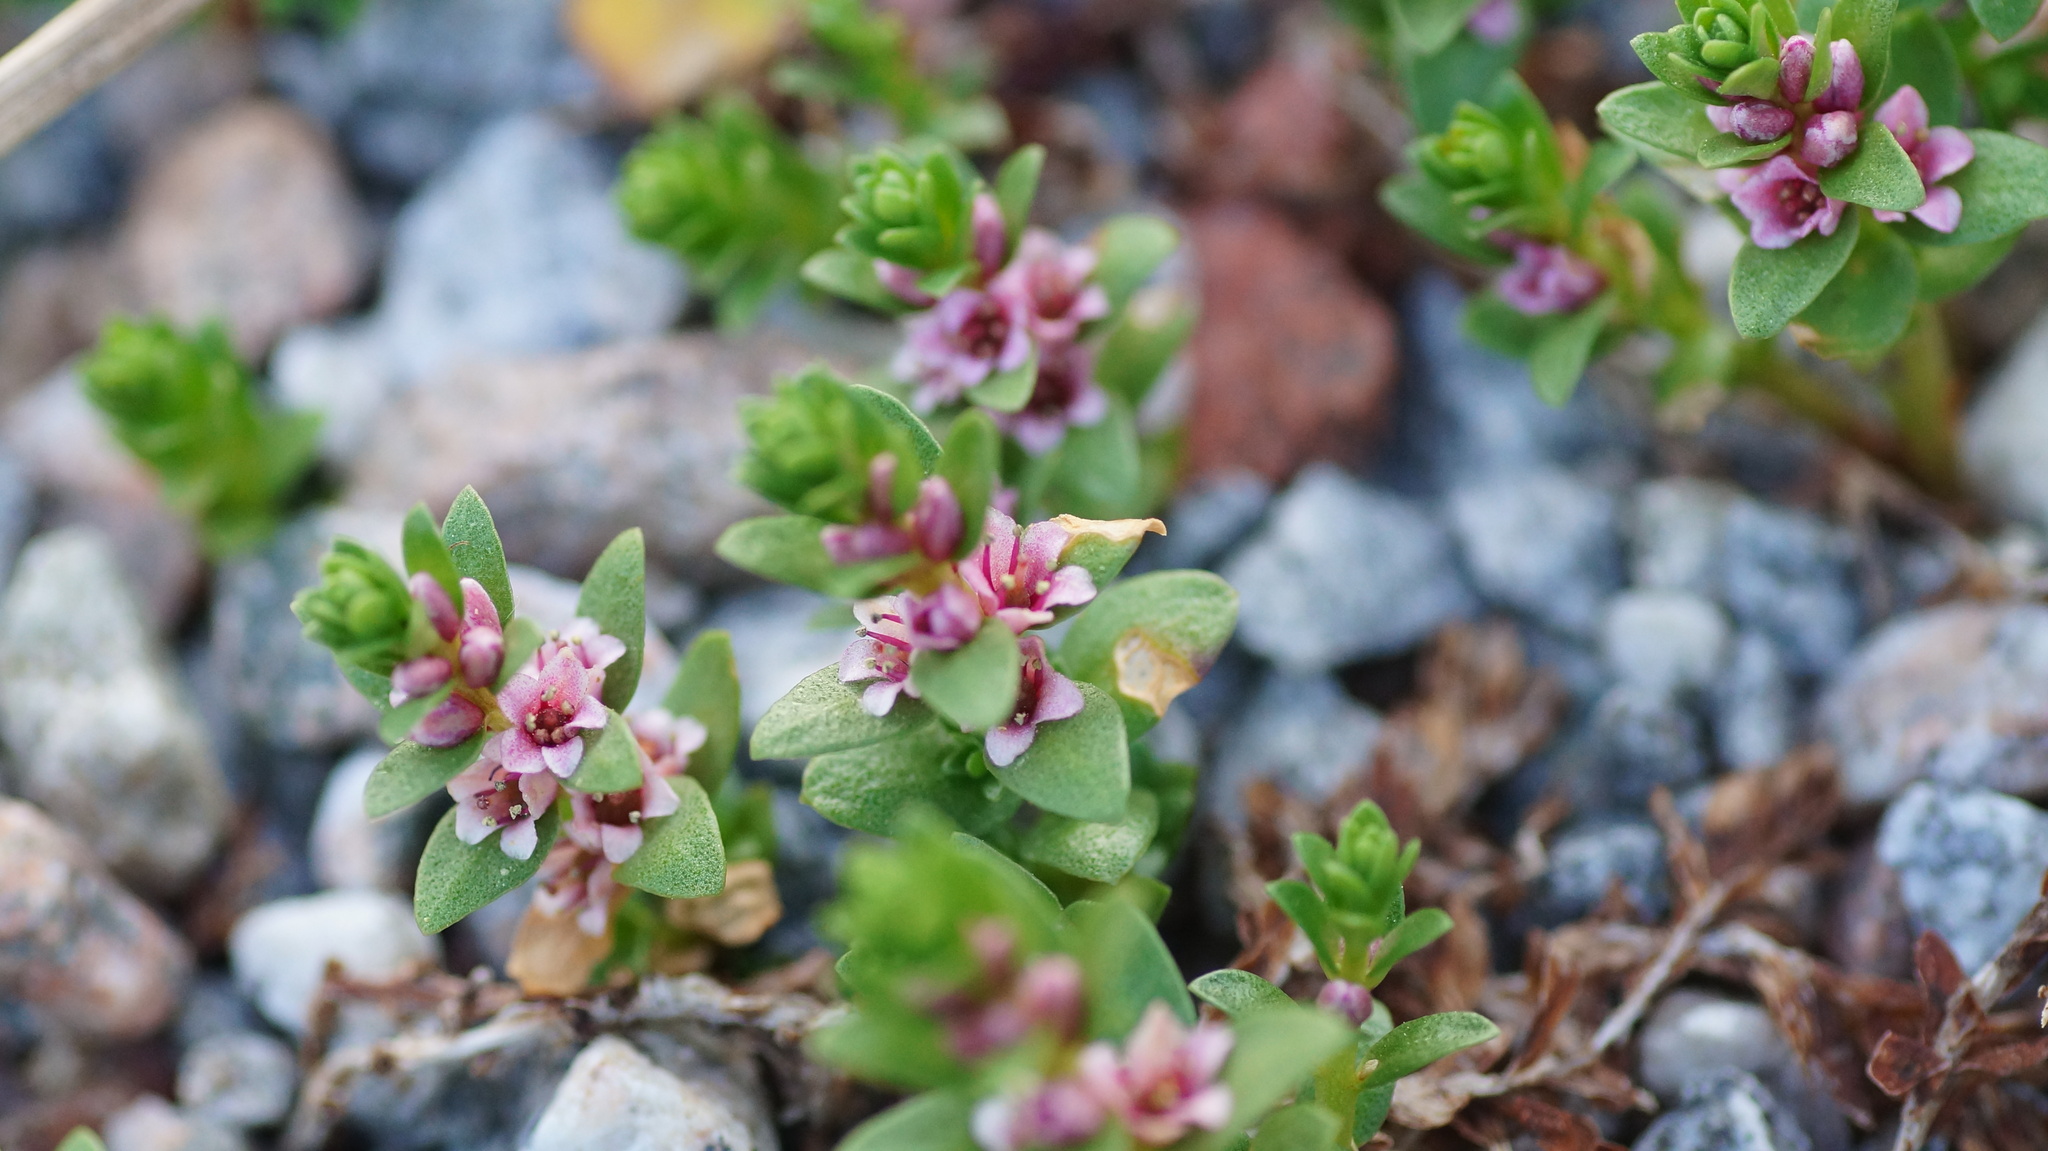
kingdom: Plantae
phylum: Tracheophyta
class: Magnoliopsida
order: Ericales
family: Primulaceae
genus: Lysimachia
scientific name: Lysimachia maritima
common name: Sea milkwort
